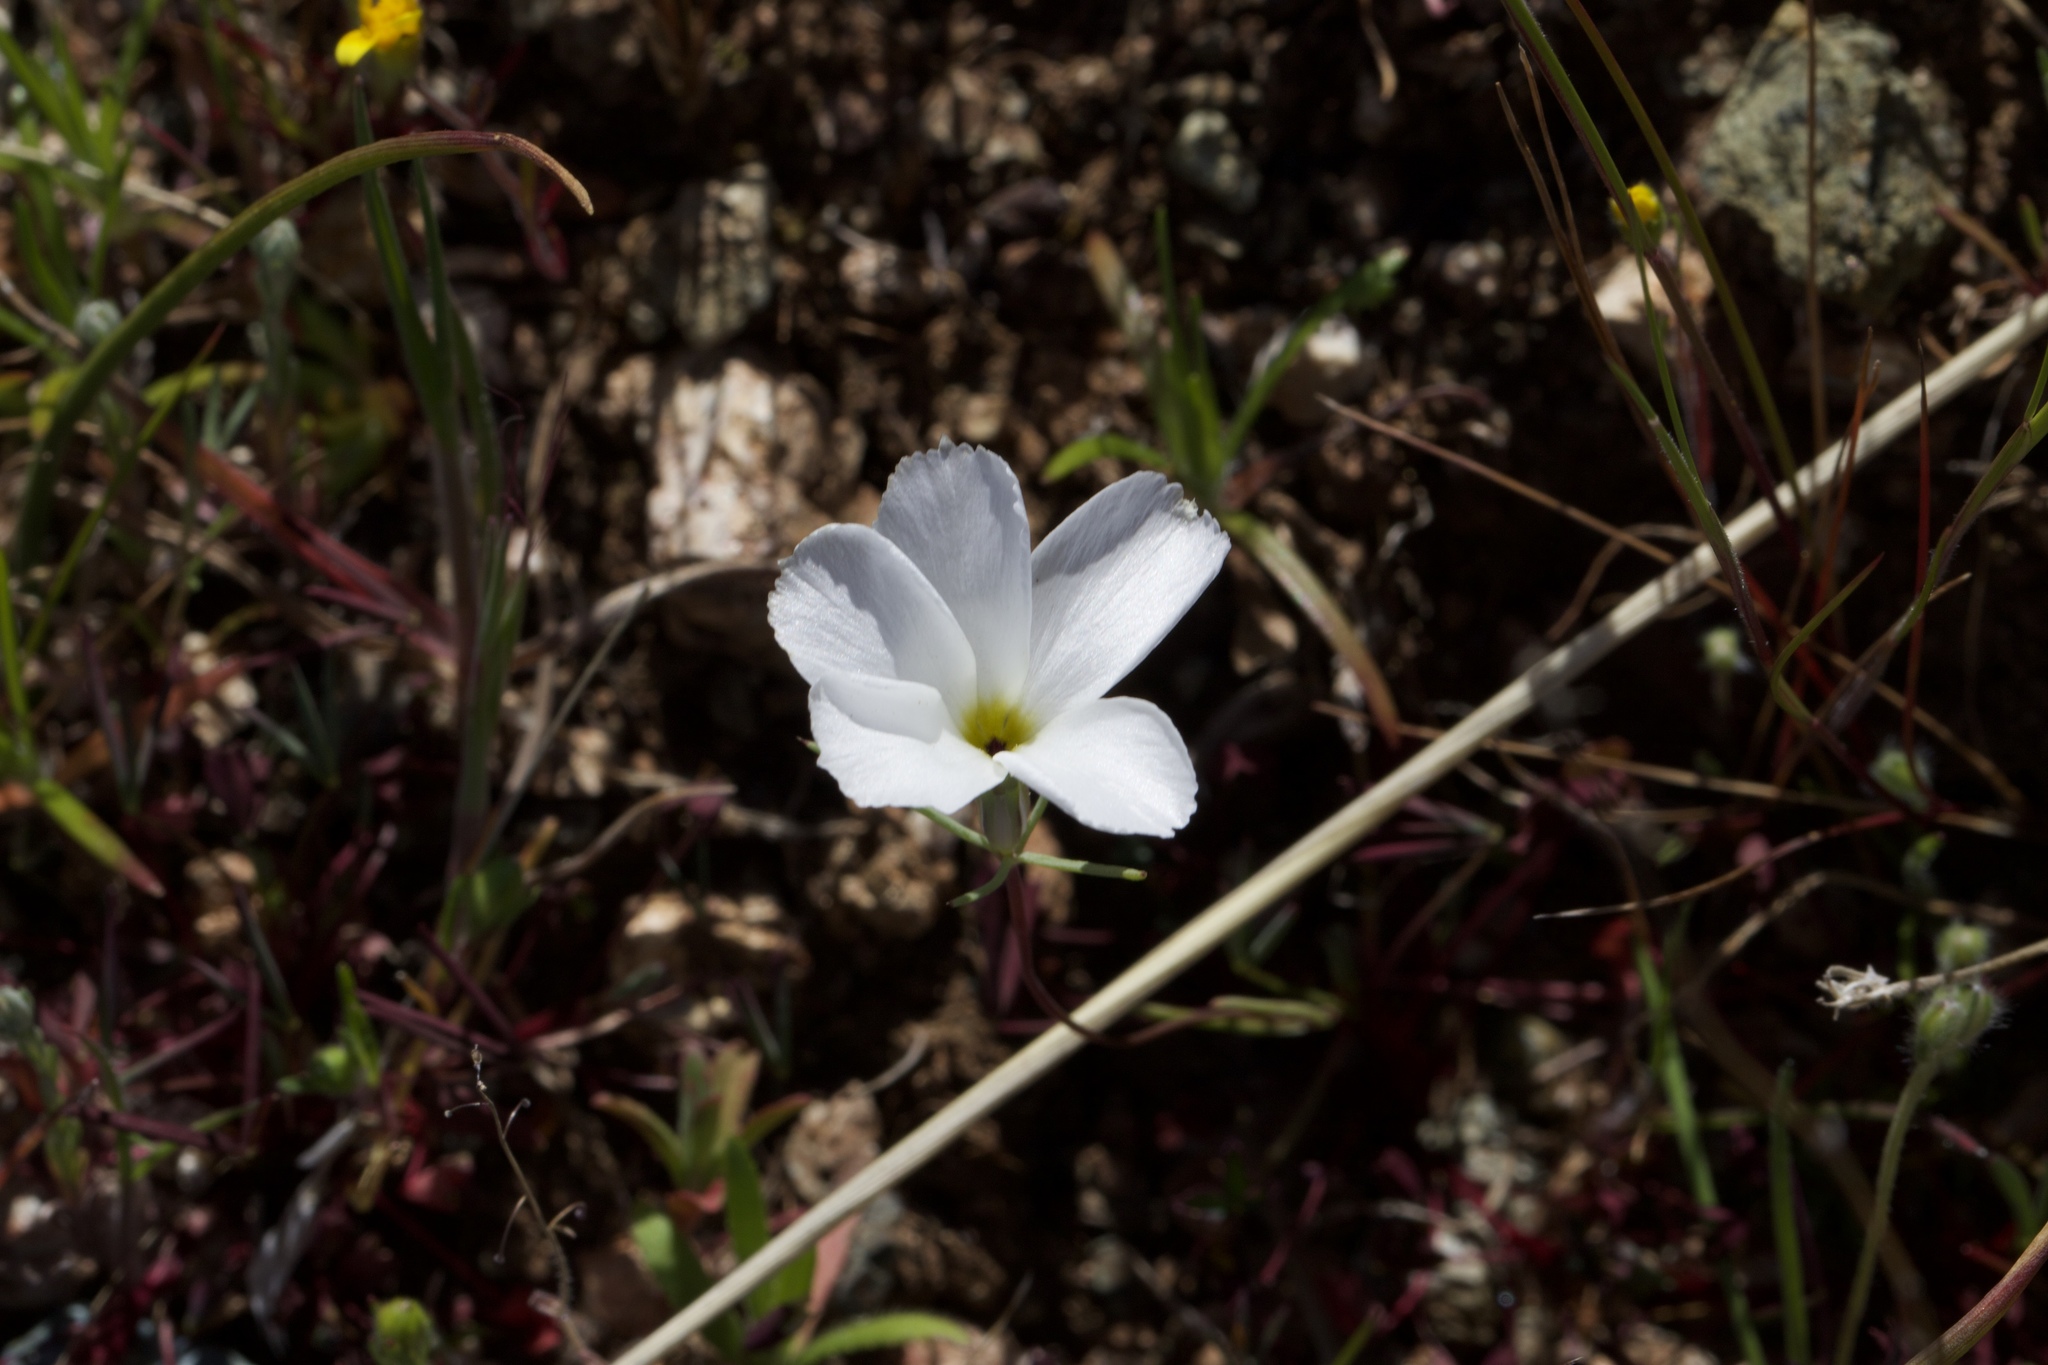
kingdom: Plantae
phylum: Tracheophyta
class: Magnoliopsida
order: Ericales
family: Polemoniaceae
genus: Linanthus
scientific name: Linanthus dichotomus
